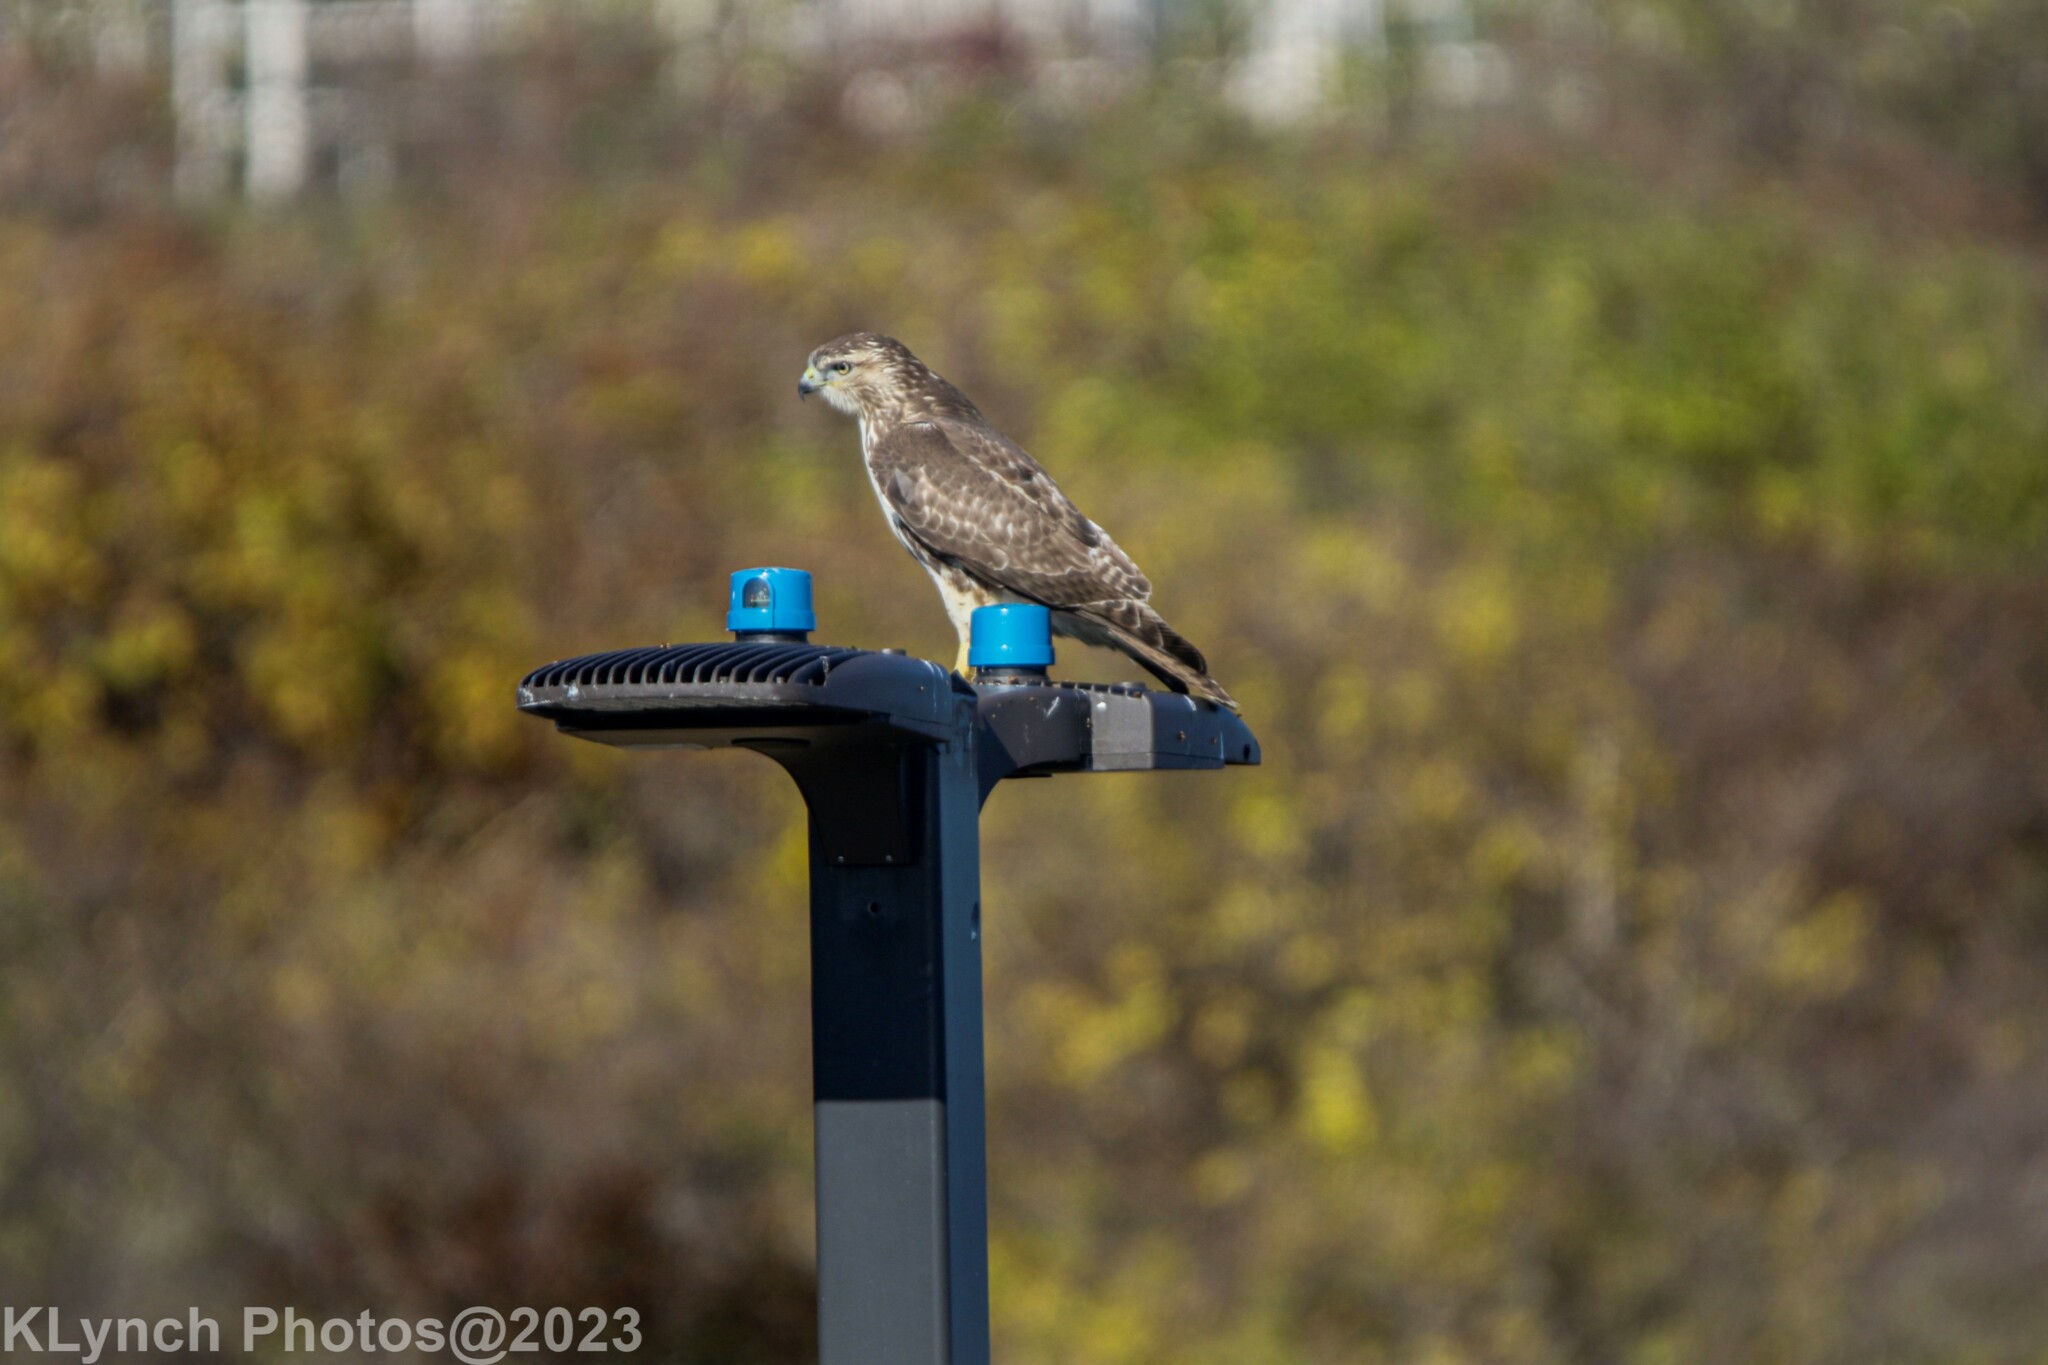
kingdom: Animalia
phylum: Chordata
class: Aves
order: Accipitriformes
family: Accipitridae
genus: Buteo
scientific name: Buteo jamaicensis
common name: Red-tailed hawk
